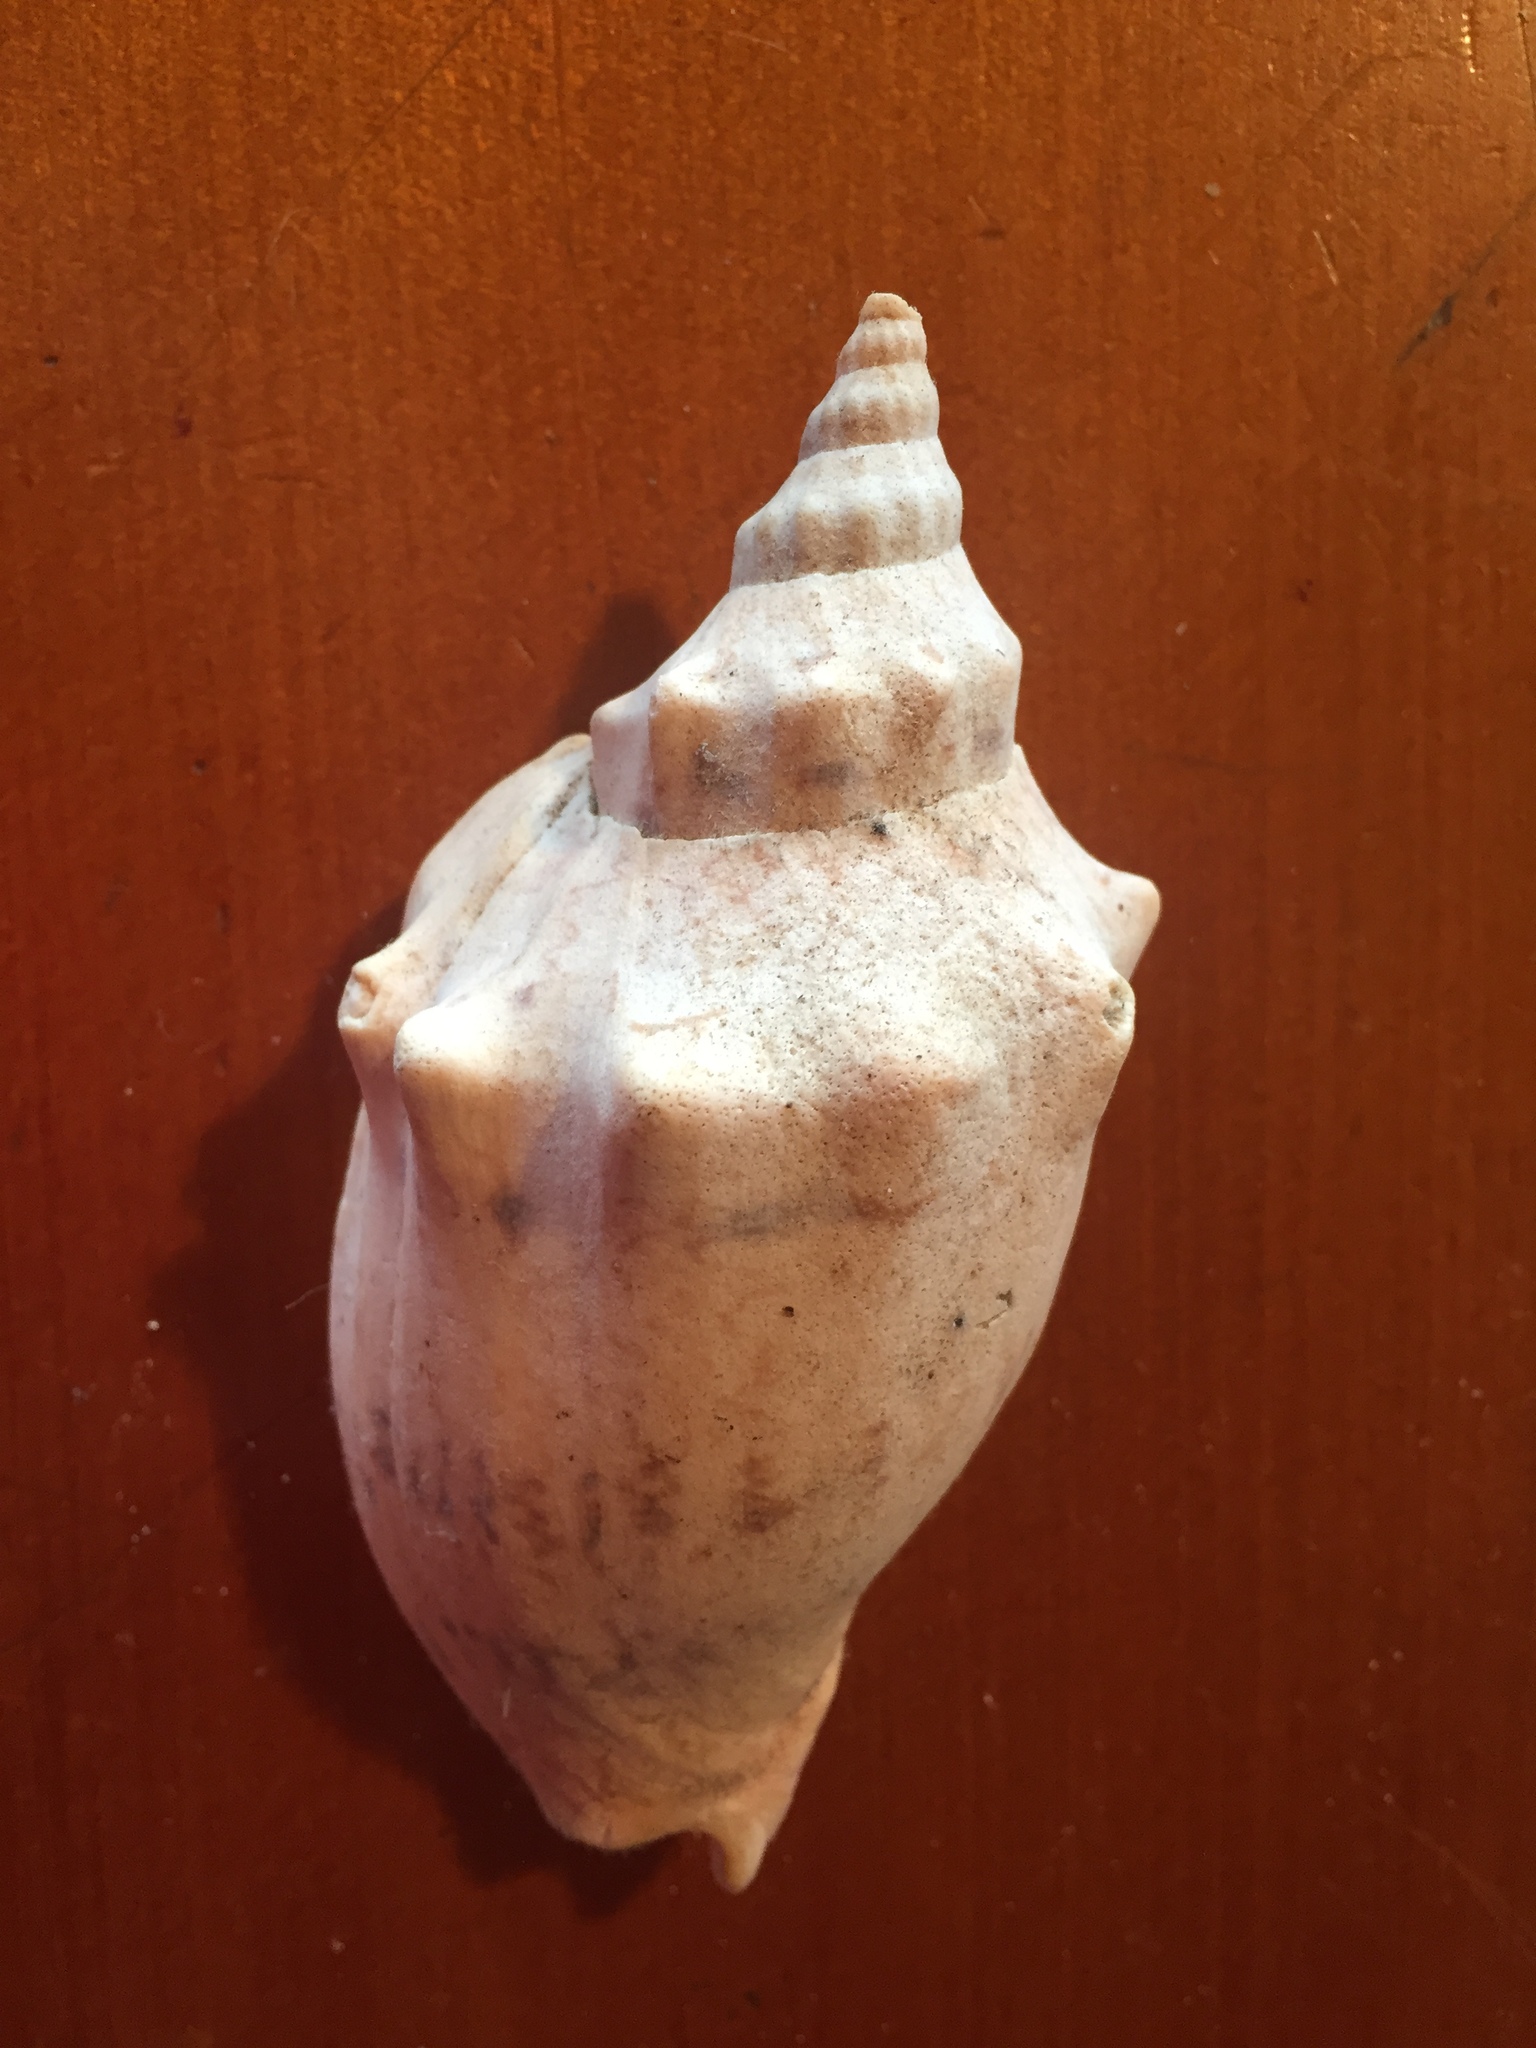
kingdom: Animalia
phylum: Mollusca
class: Gastropoda
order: Neogastropoda
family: Volutidae
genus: Alcithoe
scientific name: Alcithoe arabica
